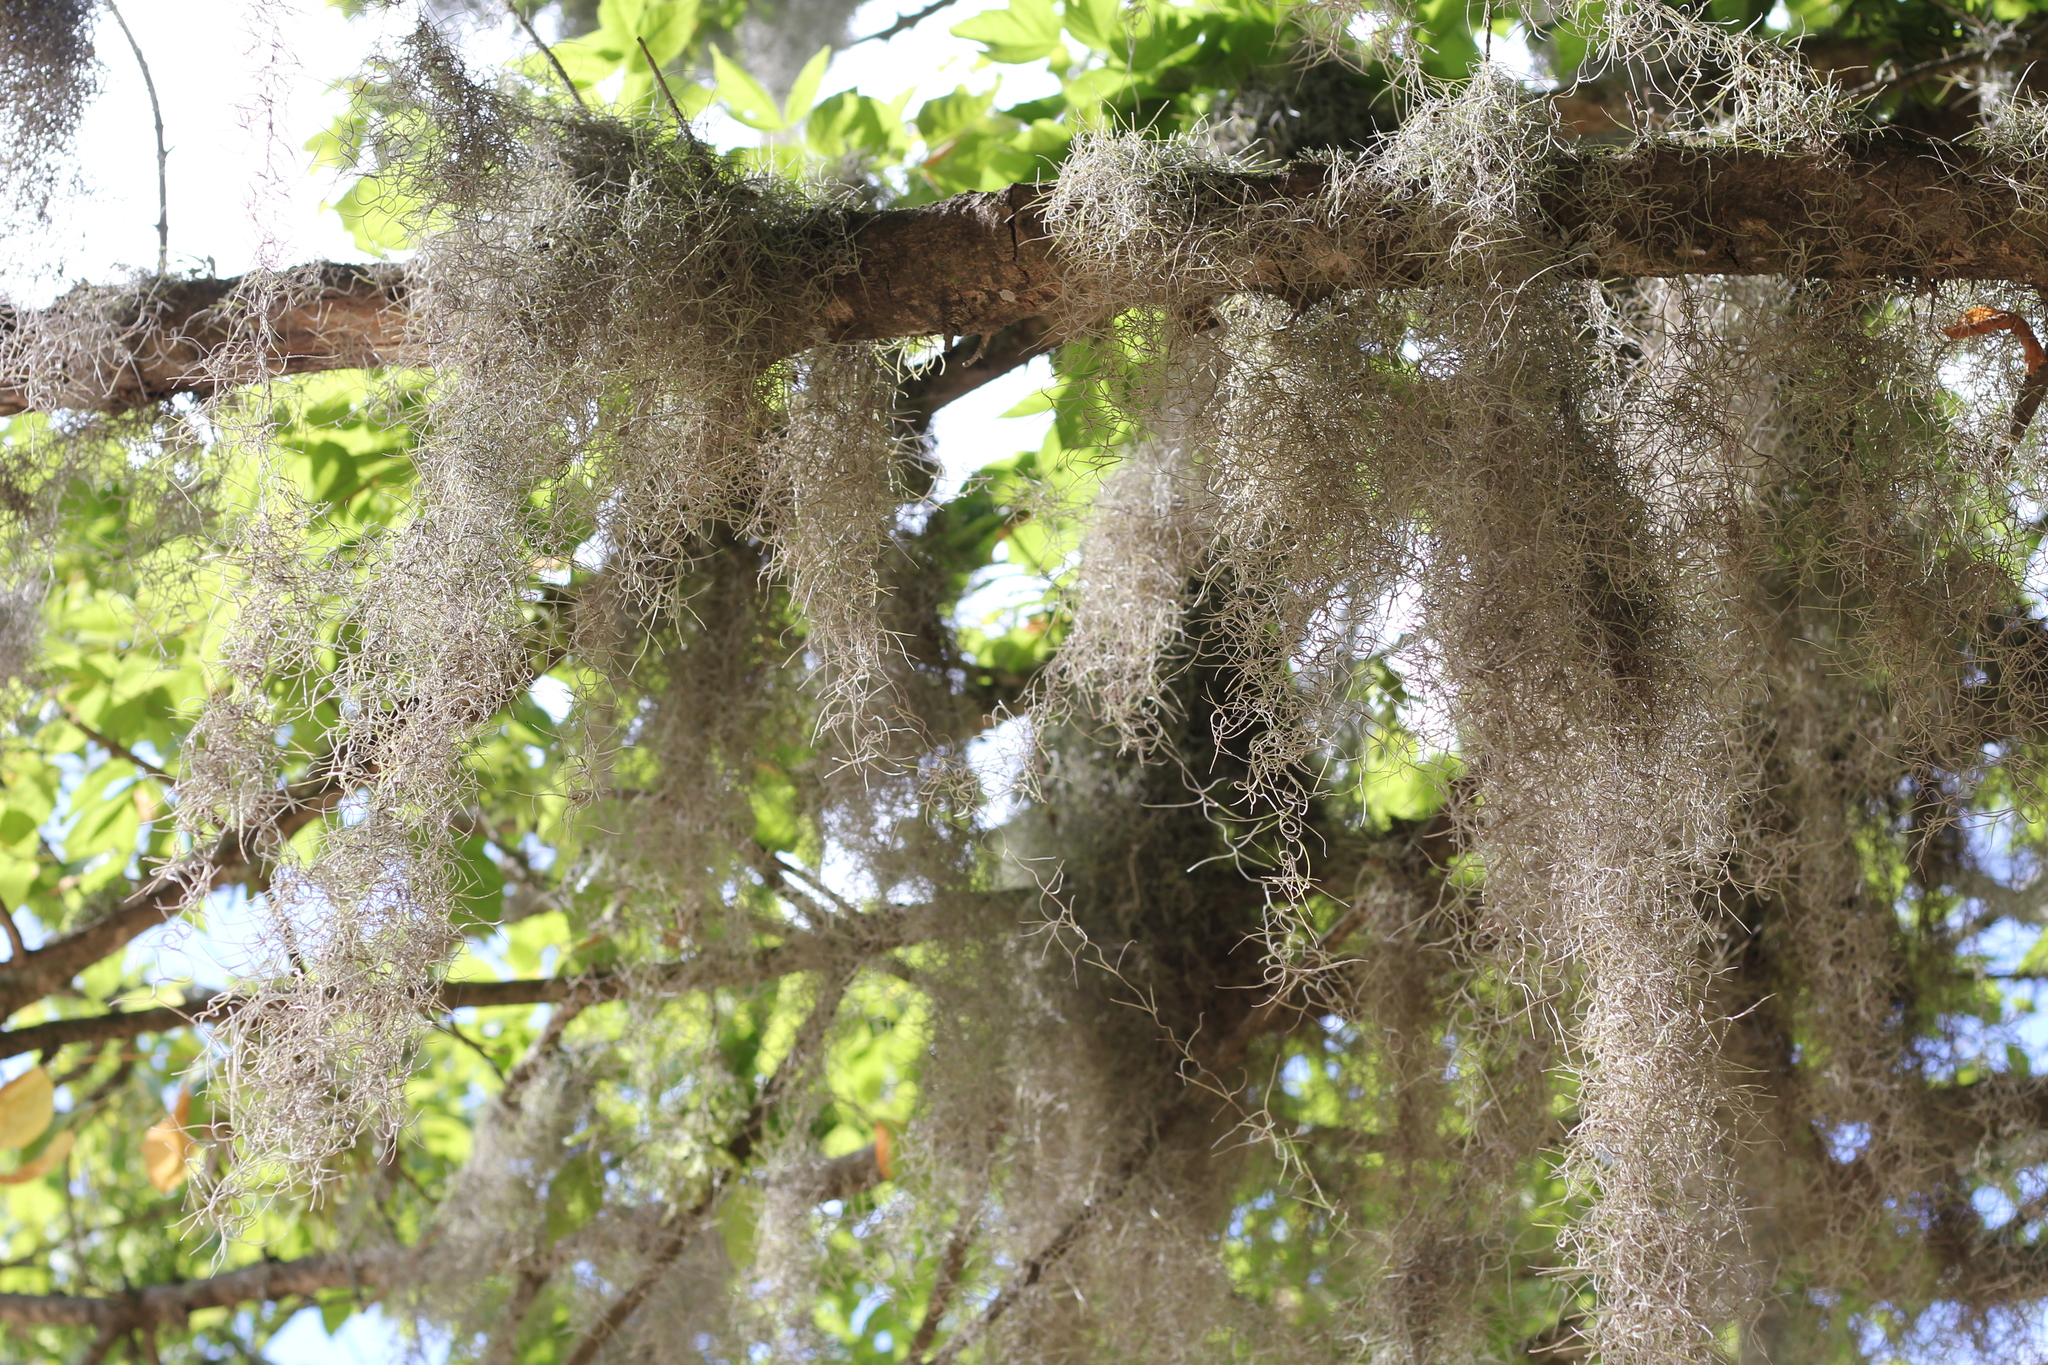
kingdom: Plantae
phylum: Tracheophyta
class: Liliopsida
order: Poales
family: Bromeliaceae
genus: Tillandsia
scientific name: Tillandsia usneoides
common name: Spanish moss
